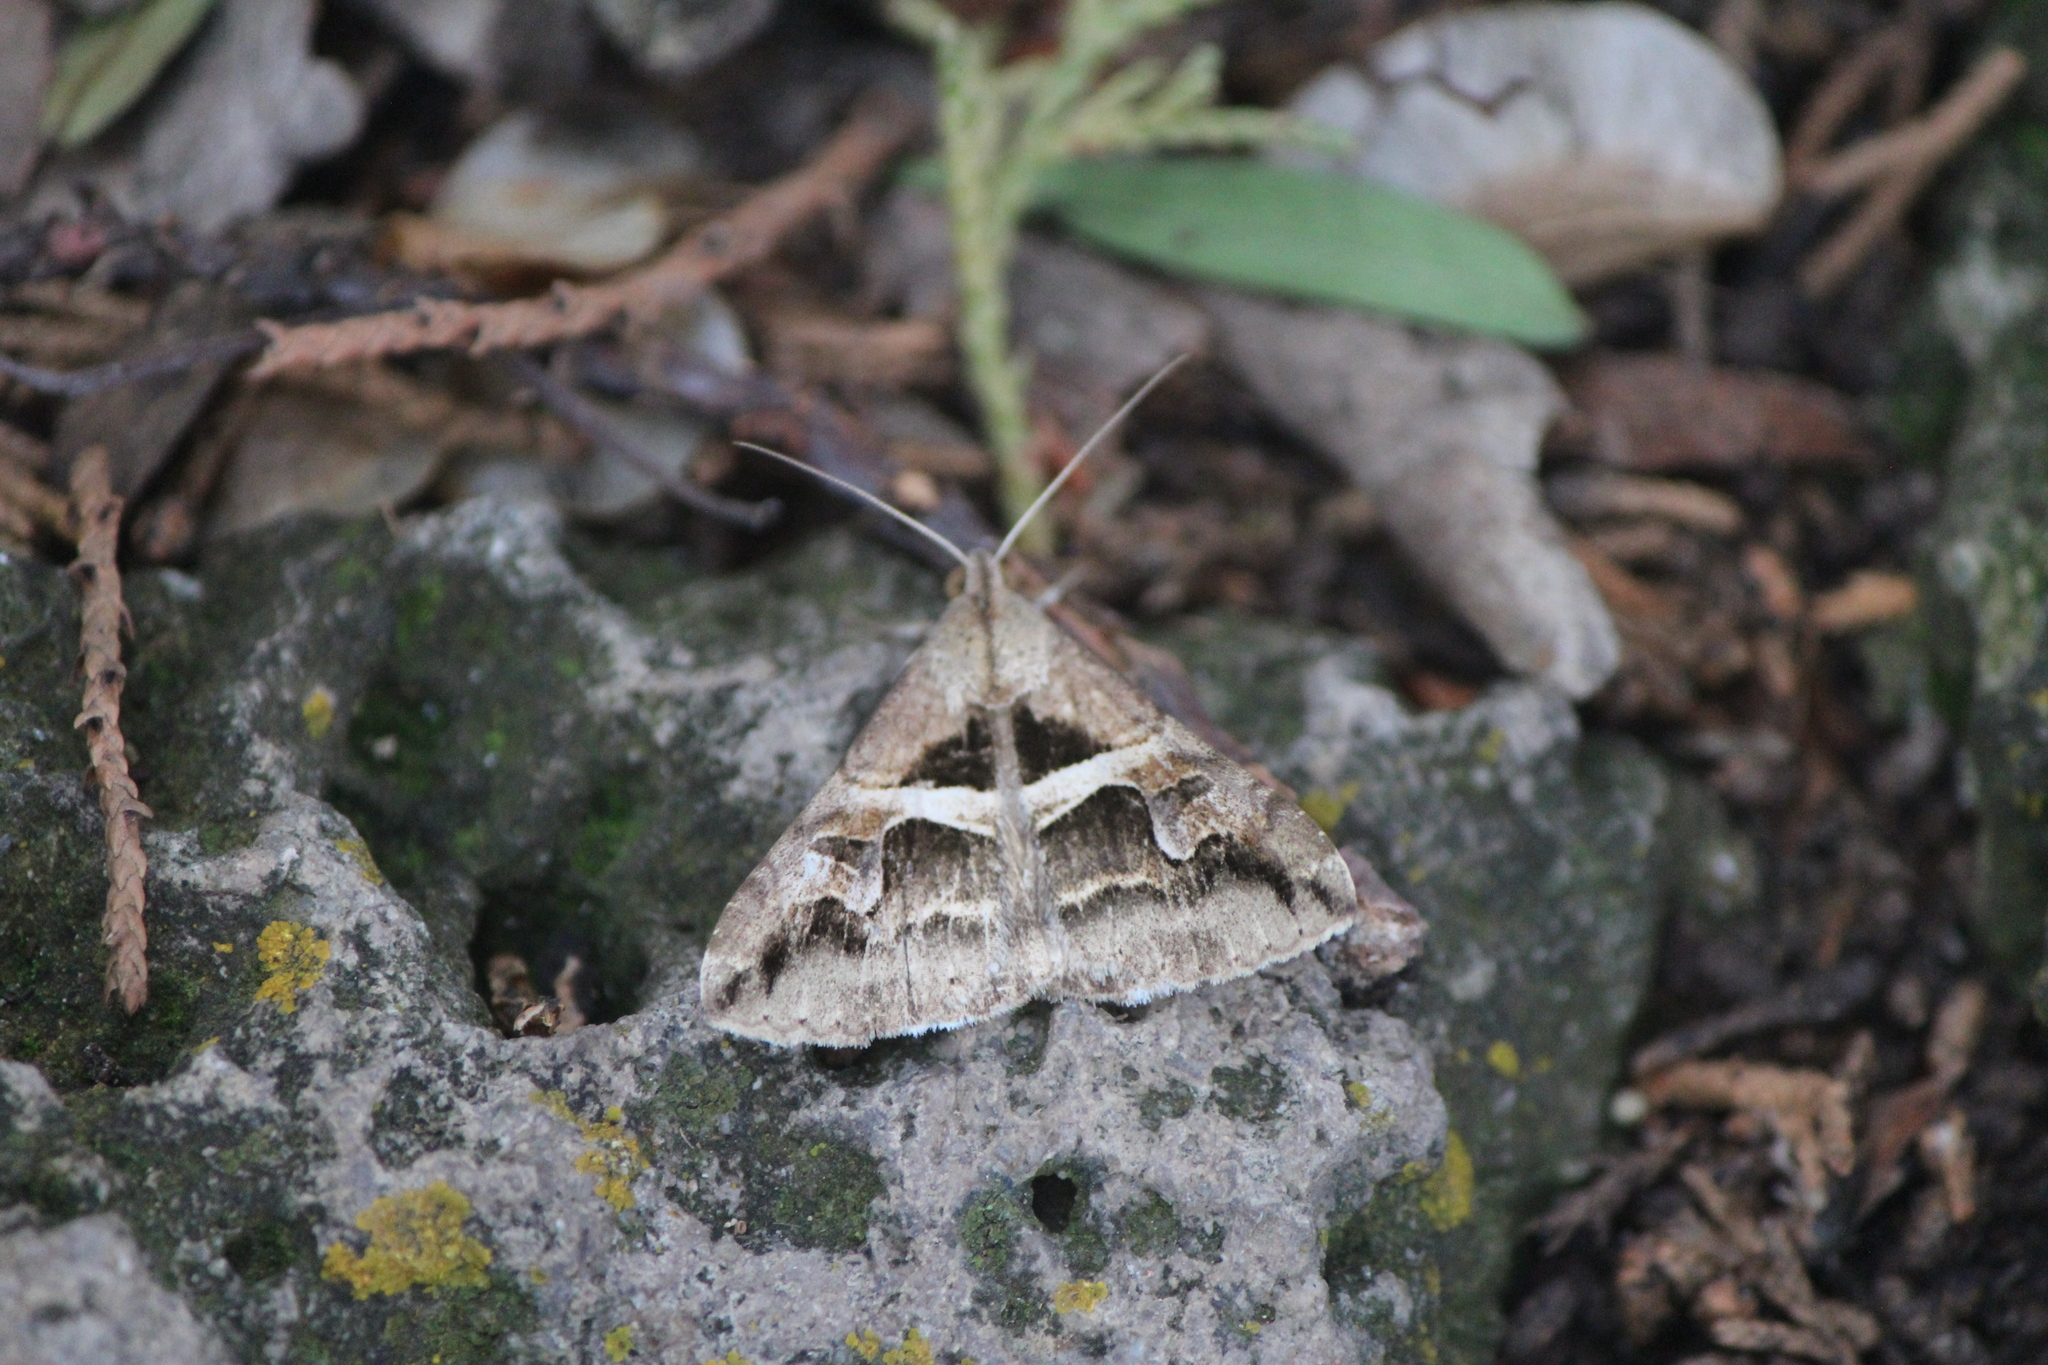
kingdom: Animalia
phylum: Arthropoda
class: Insecta
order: Lepidoptera
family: Erebidae
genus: Melipotis
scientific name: Melipotis cellaris
